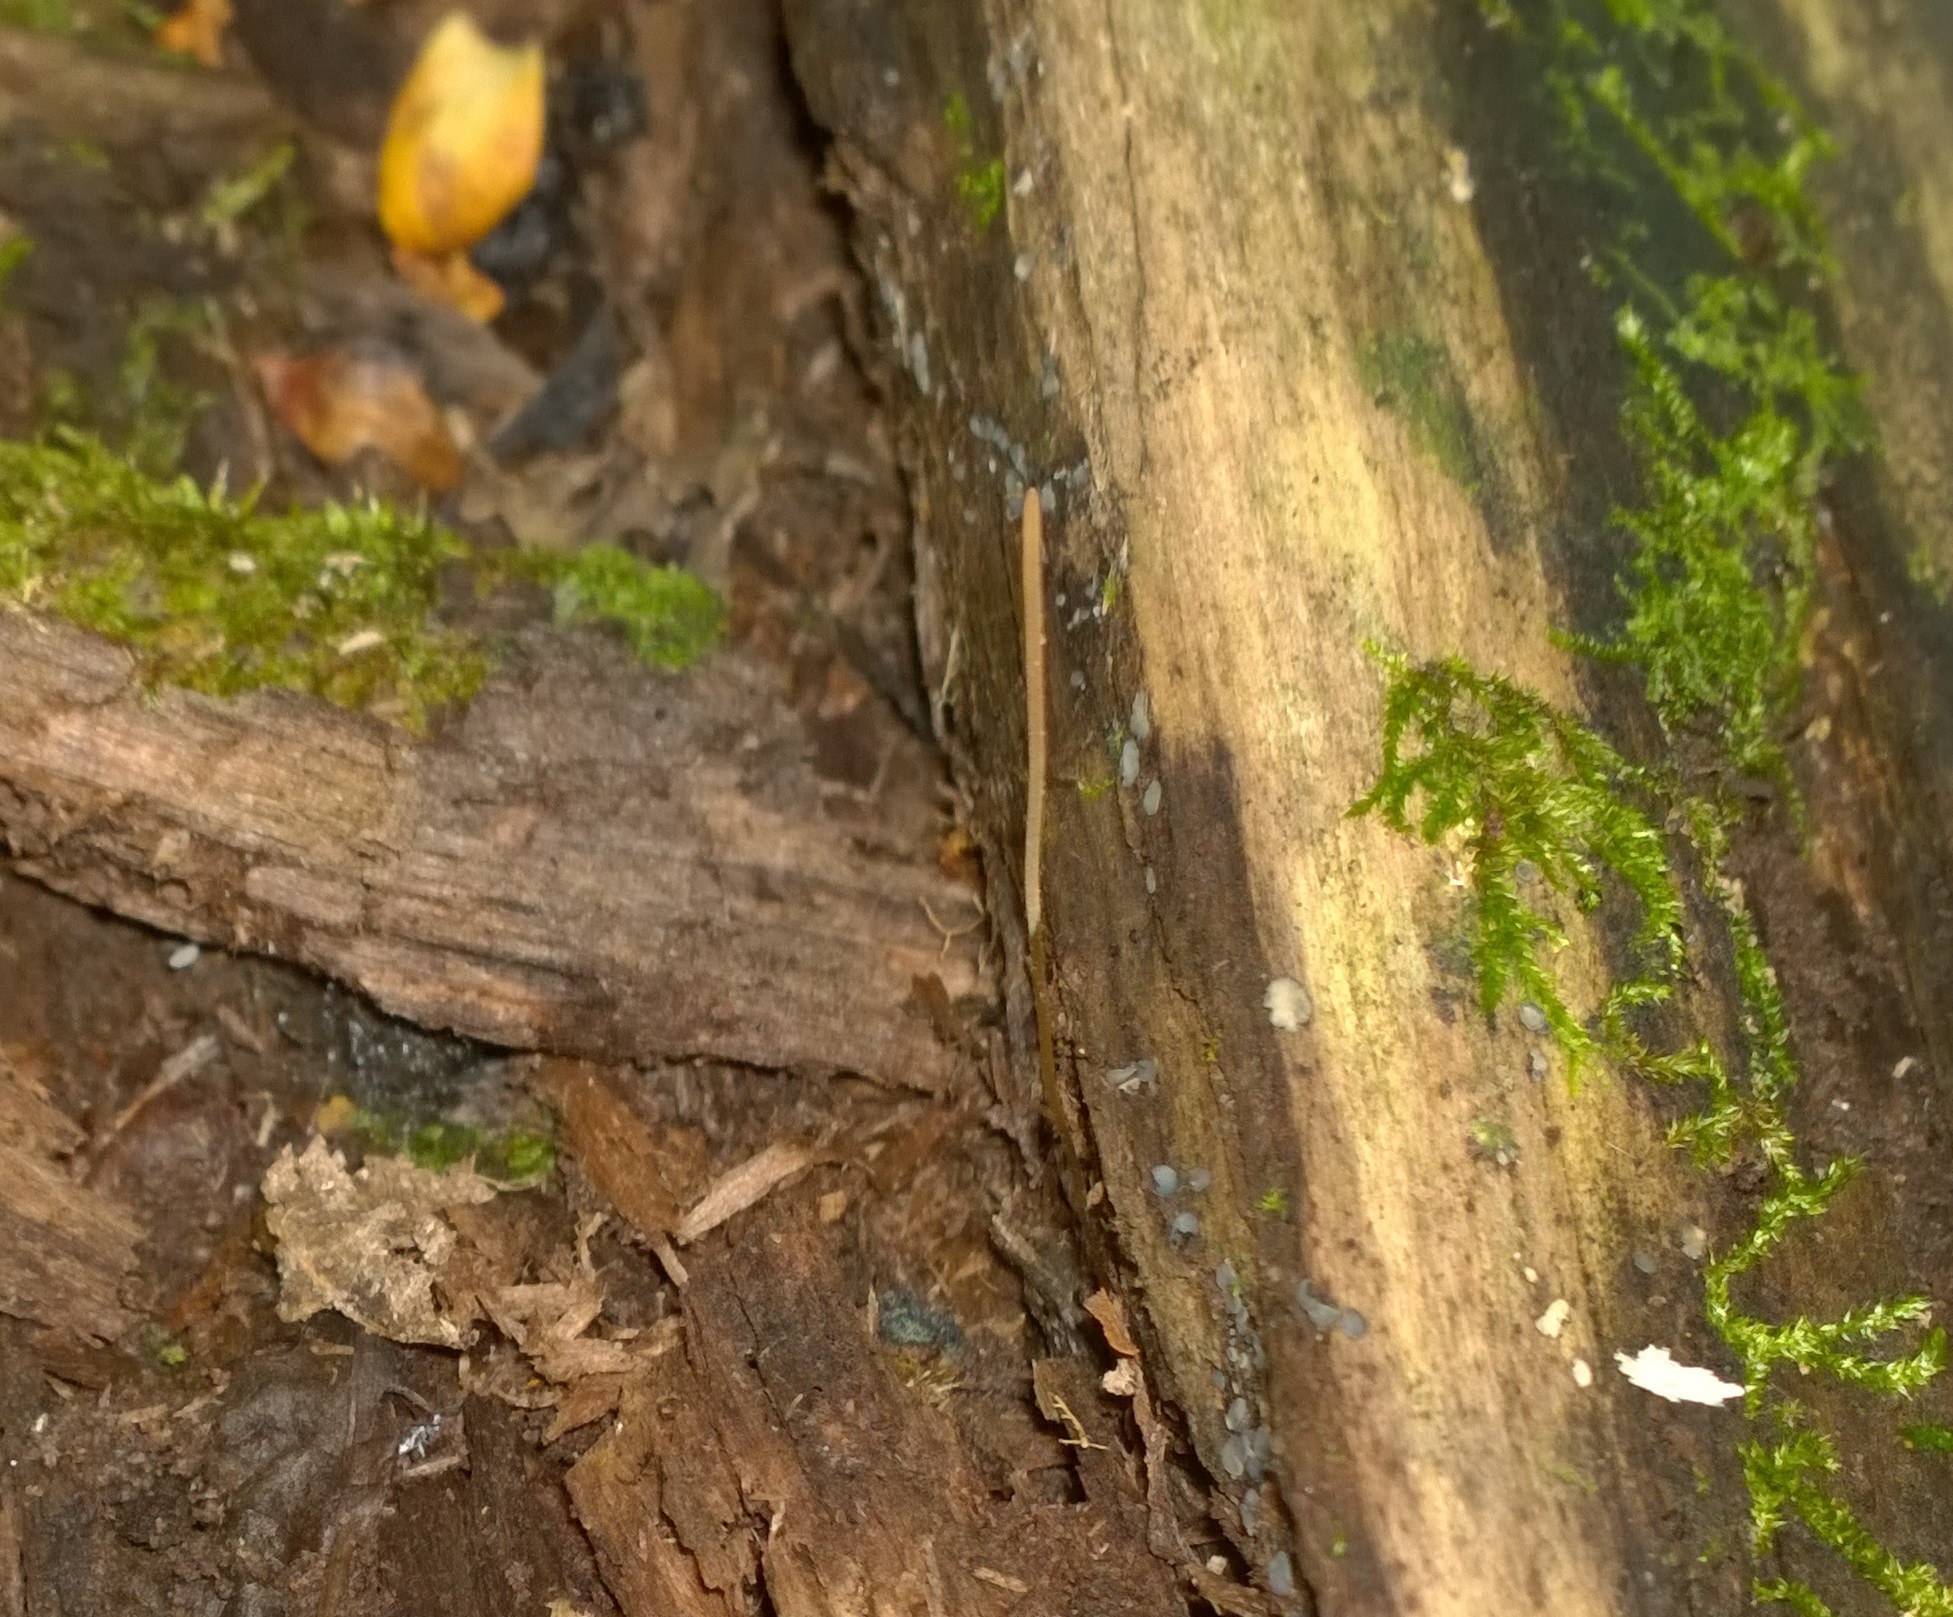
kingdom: Fungi
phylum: Basidiomycota
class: Agaricomycetes
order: Agaricales
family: Typhulaceae
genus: Typhula
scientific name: Typhula juncea
